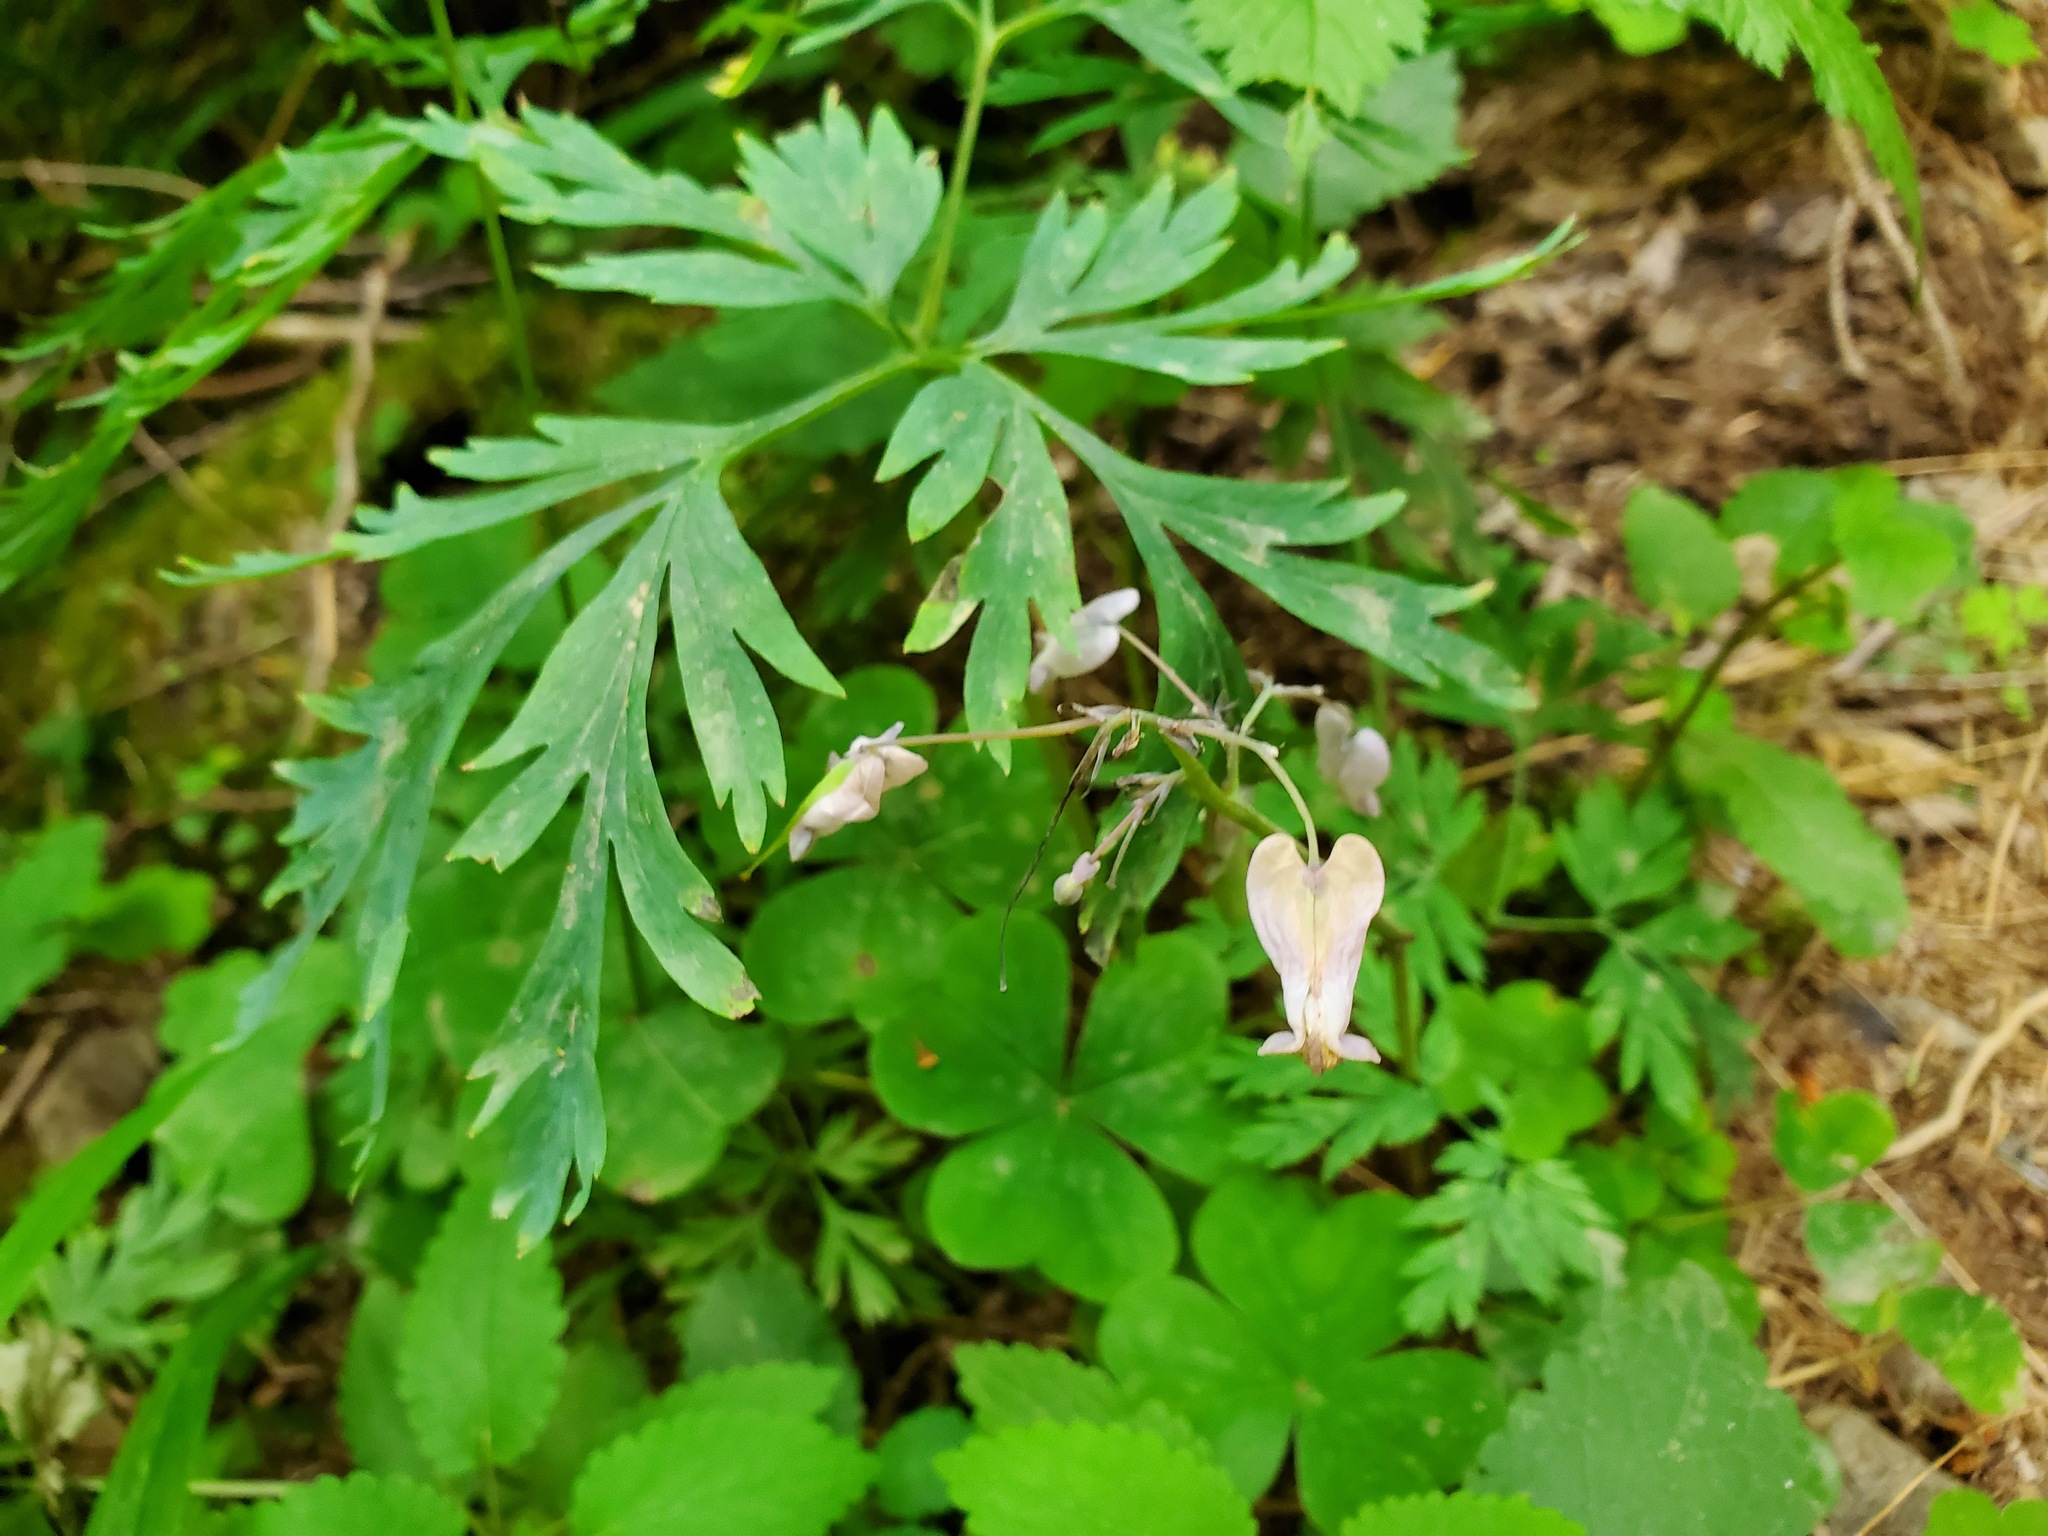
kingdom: Plantae
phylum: Tracheophyta
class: Magnoliopsida
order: Ranunculales
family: Papaveraceae
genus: Dicentra
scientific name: Dicentra formosa
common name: Bleeding-heart
